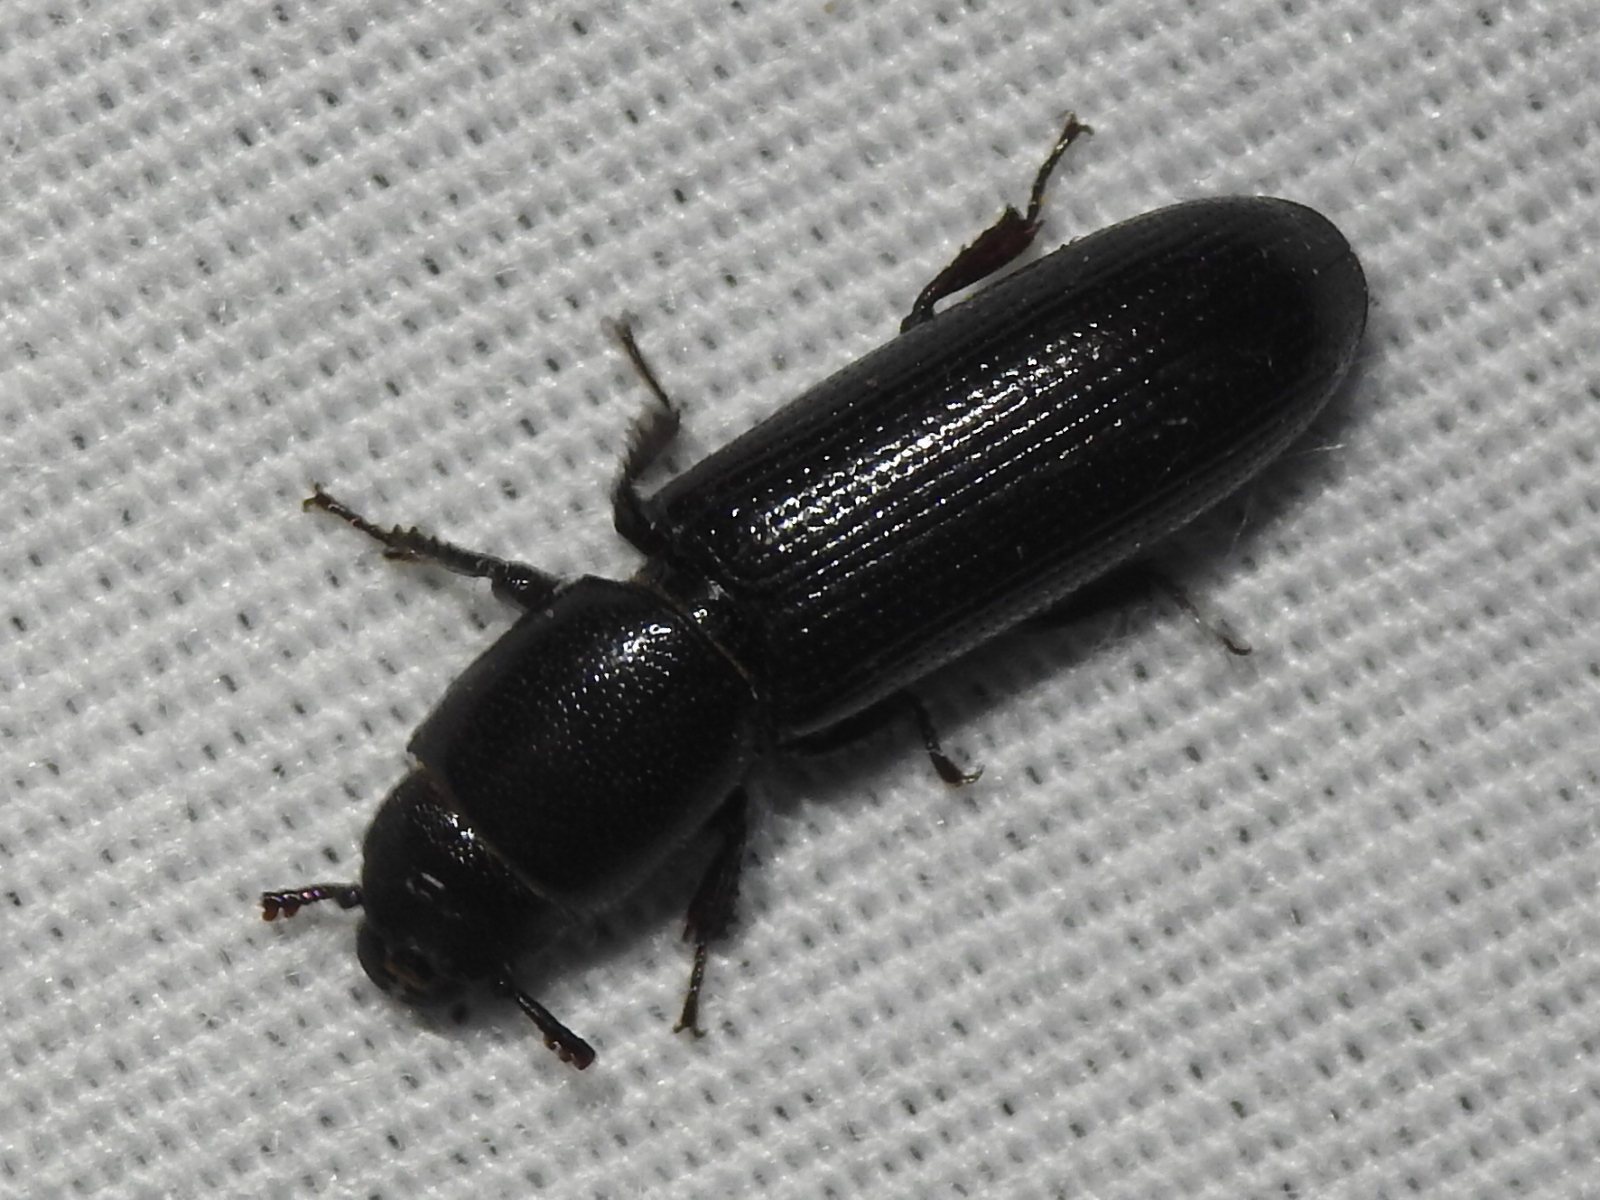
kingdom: Animalia
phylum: Arthropoda
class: Insecta
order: Coleoptera
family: Trogossitidae
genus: Airora
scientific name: Airora cylindrica
